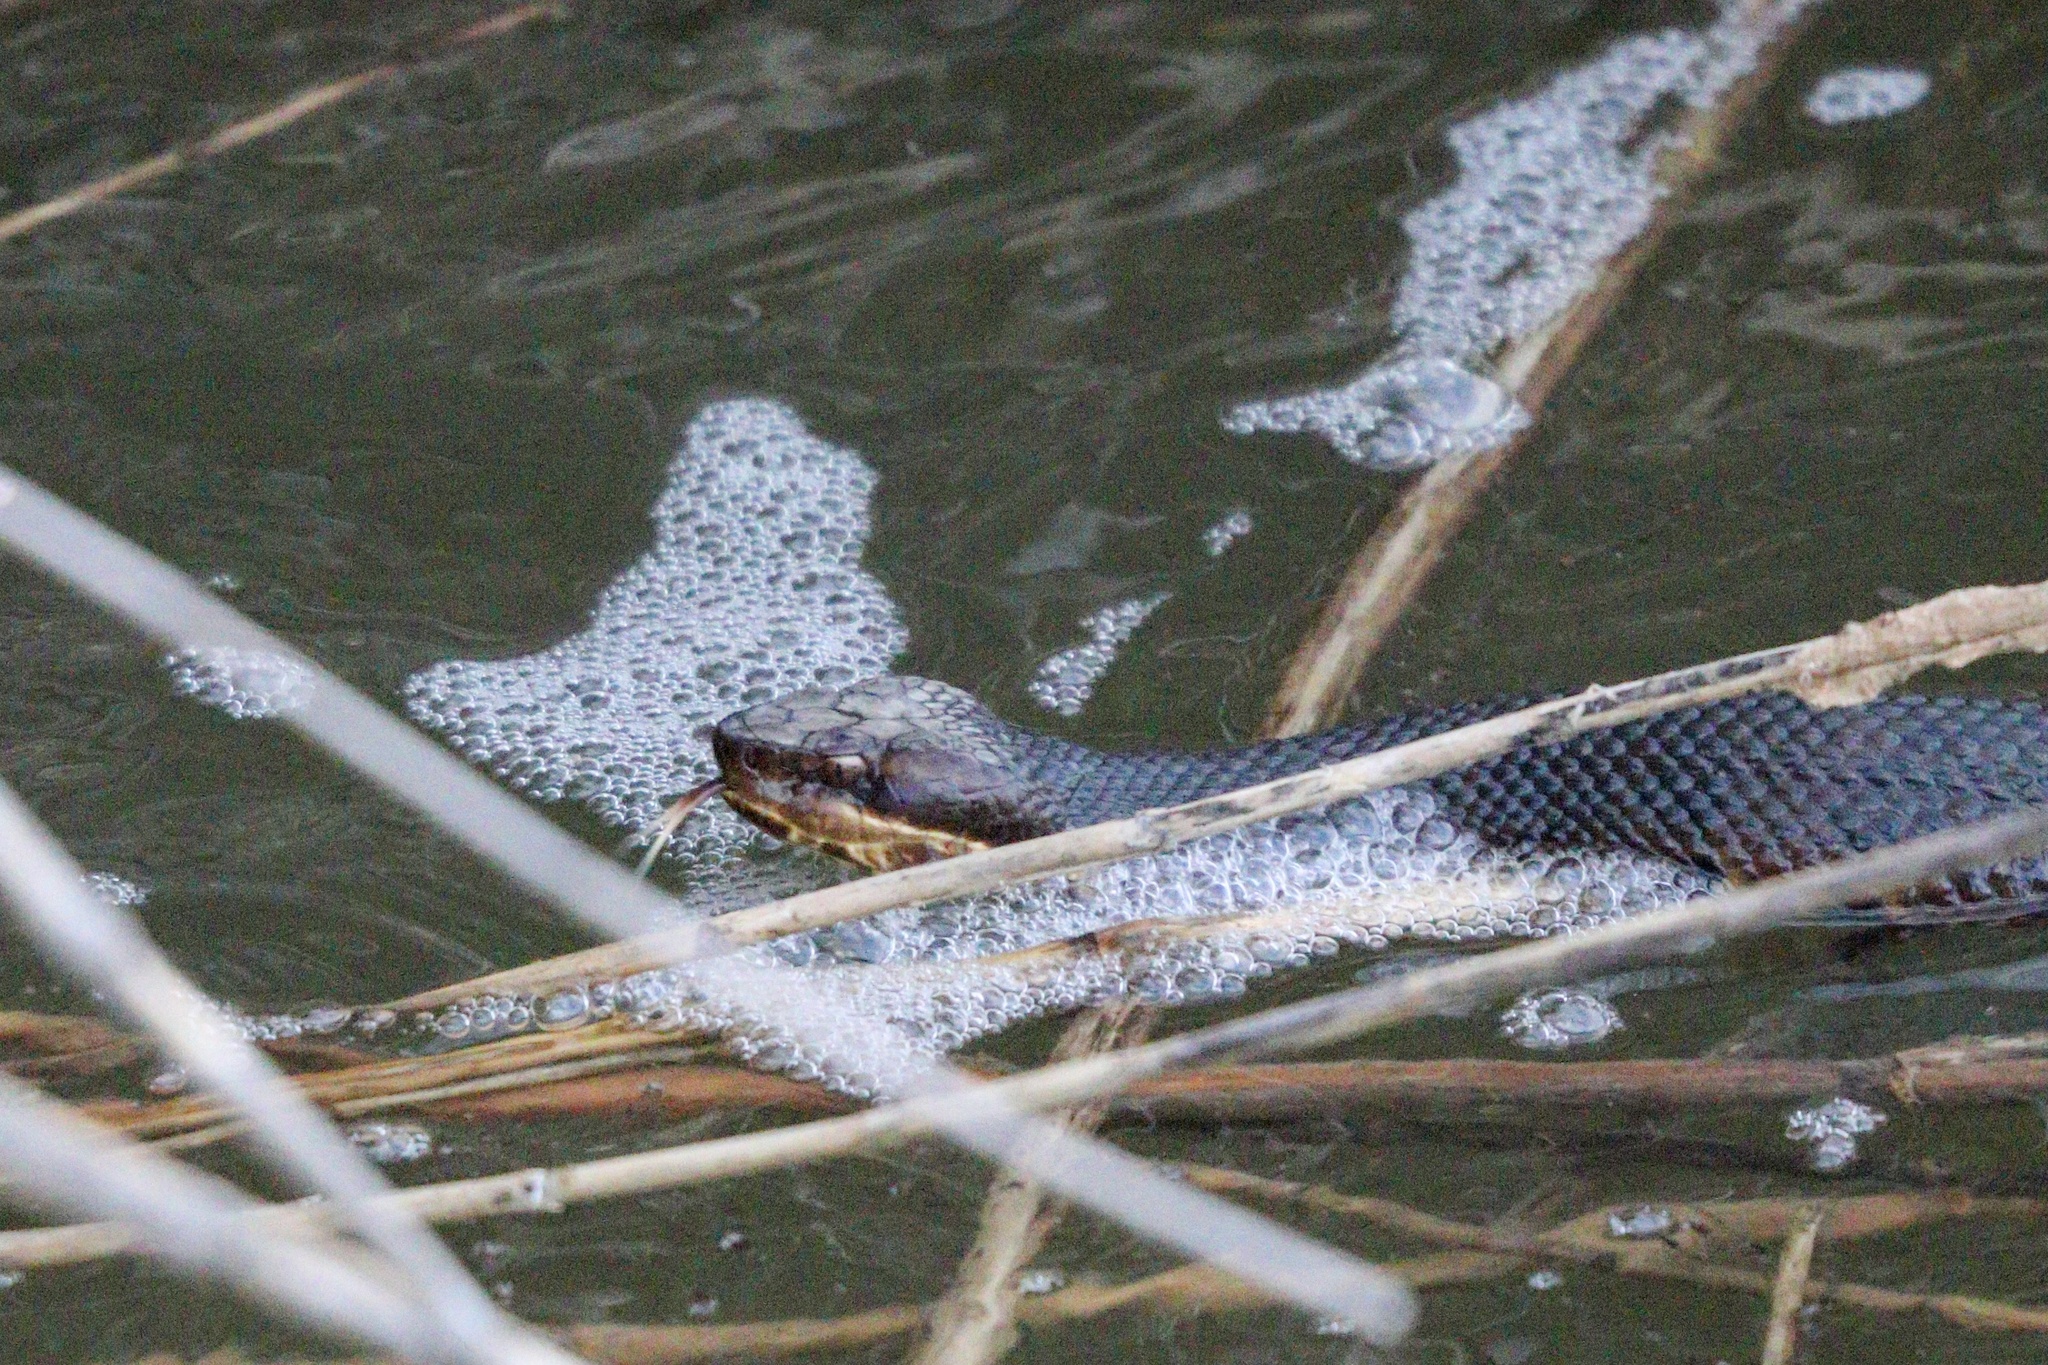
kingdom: Animalia
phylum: Chordata
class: Squamata
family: Viperidae
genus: Agkistrodon
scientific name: Agkistrodon piscivorus
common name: Cottonmouth
